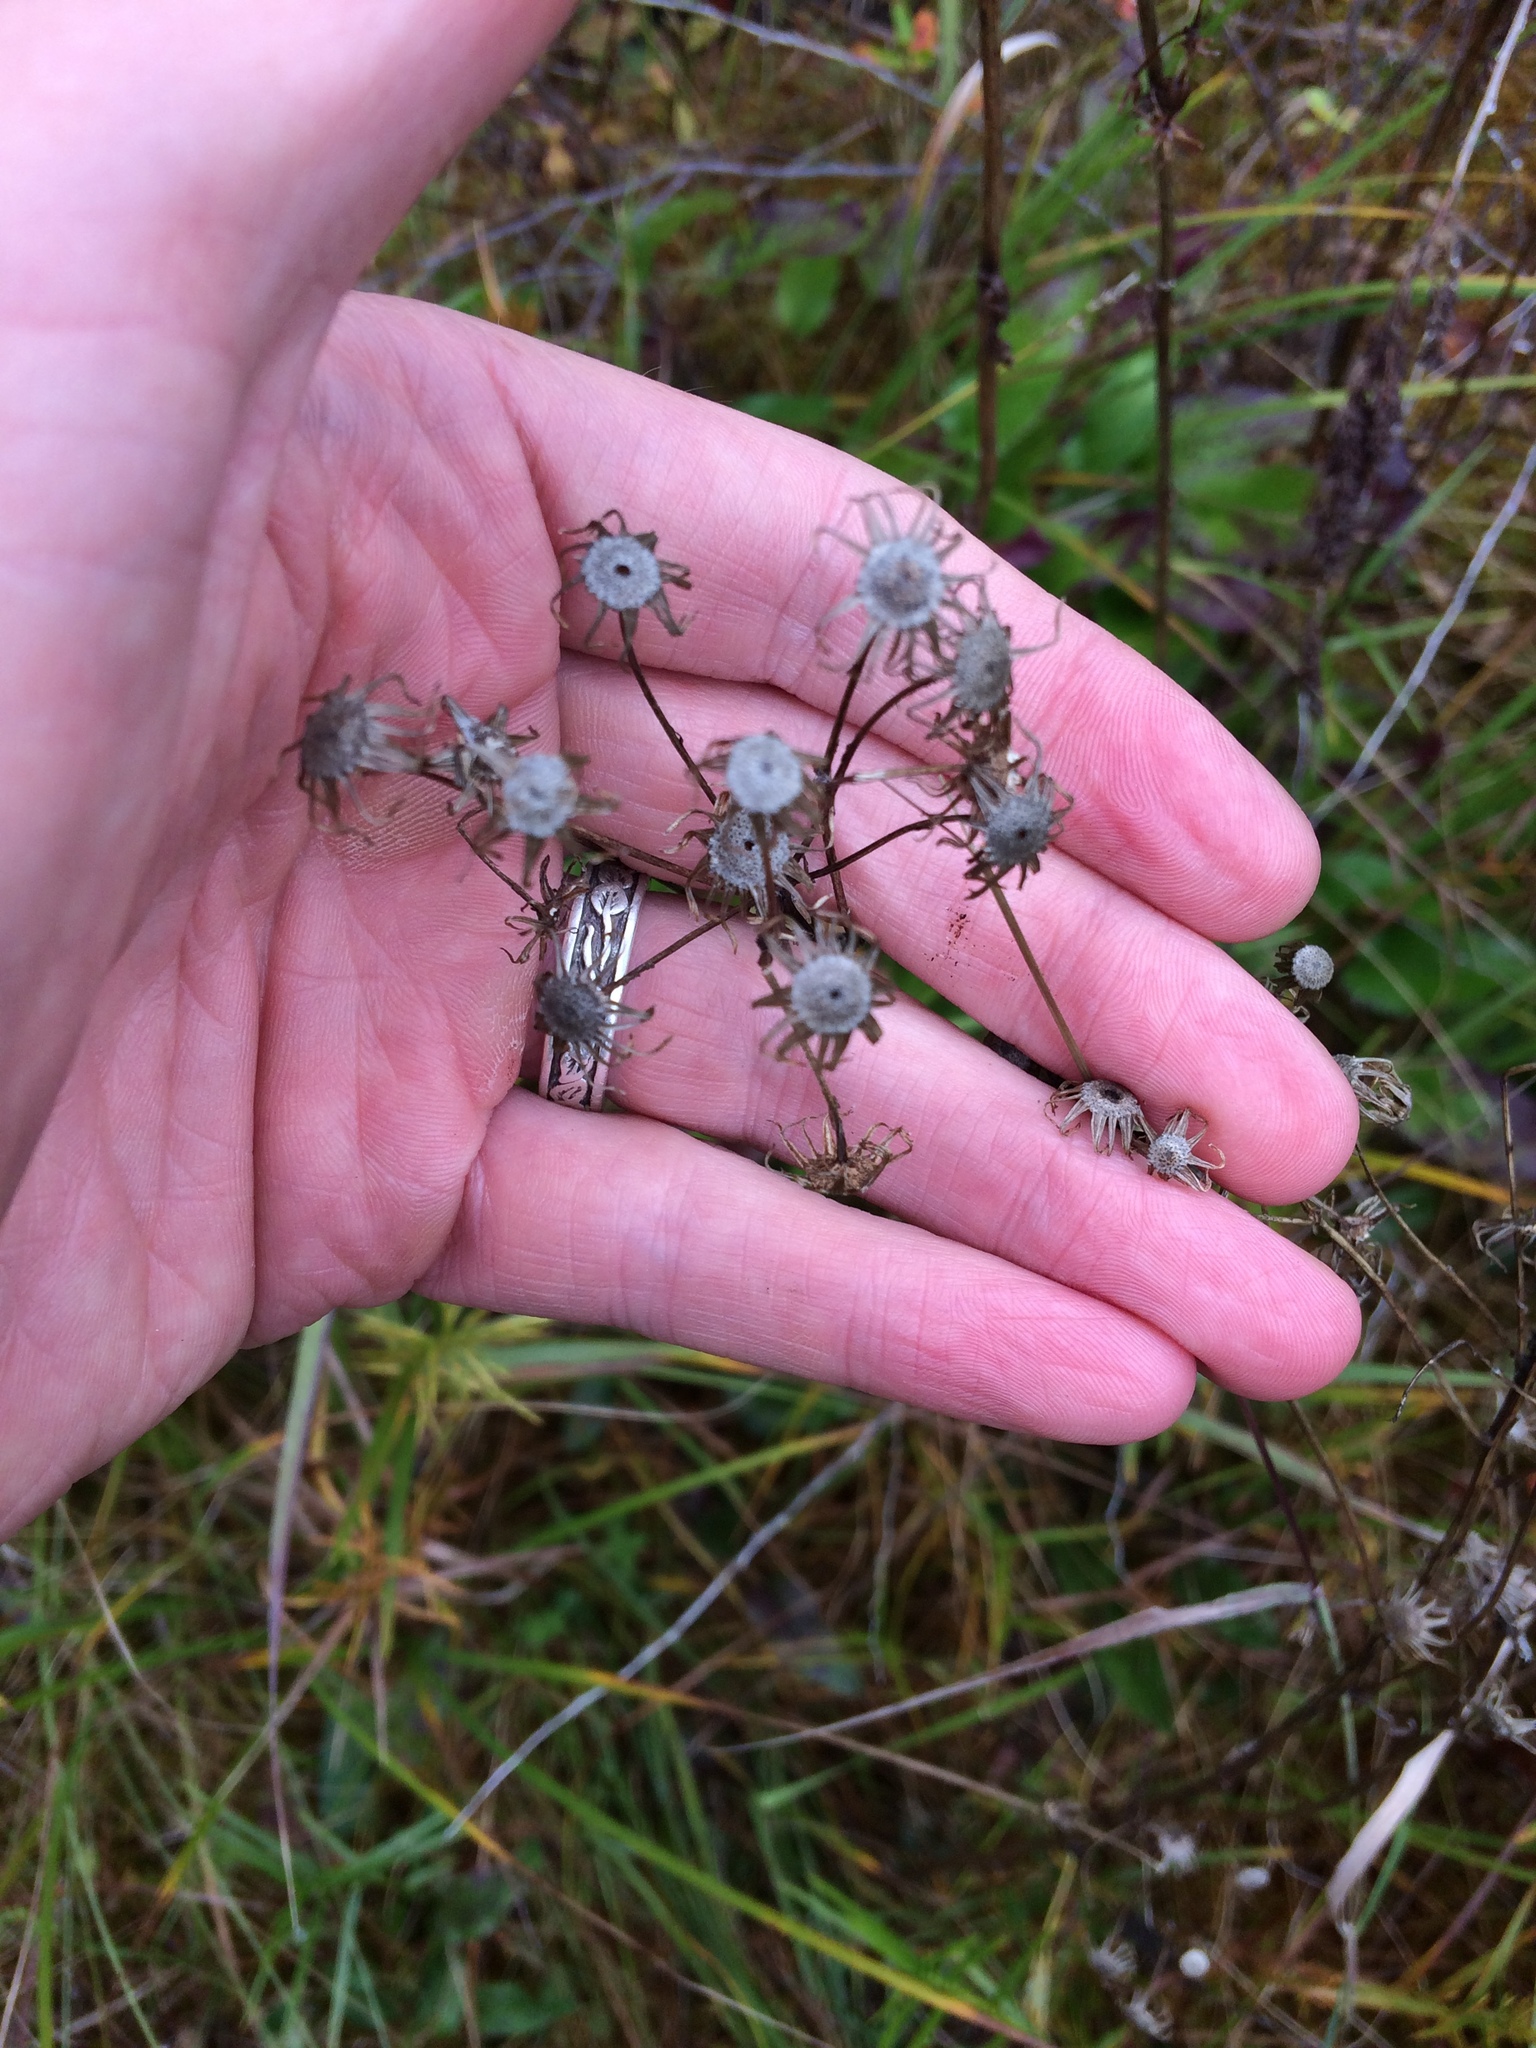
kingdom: Plantae
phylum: Tracheophyta
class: Magnoliopsida
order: Asterales
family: Asteraceae
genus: Packera
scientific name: Packera schweinitziana
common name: Schweinitz's ragwort
